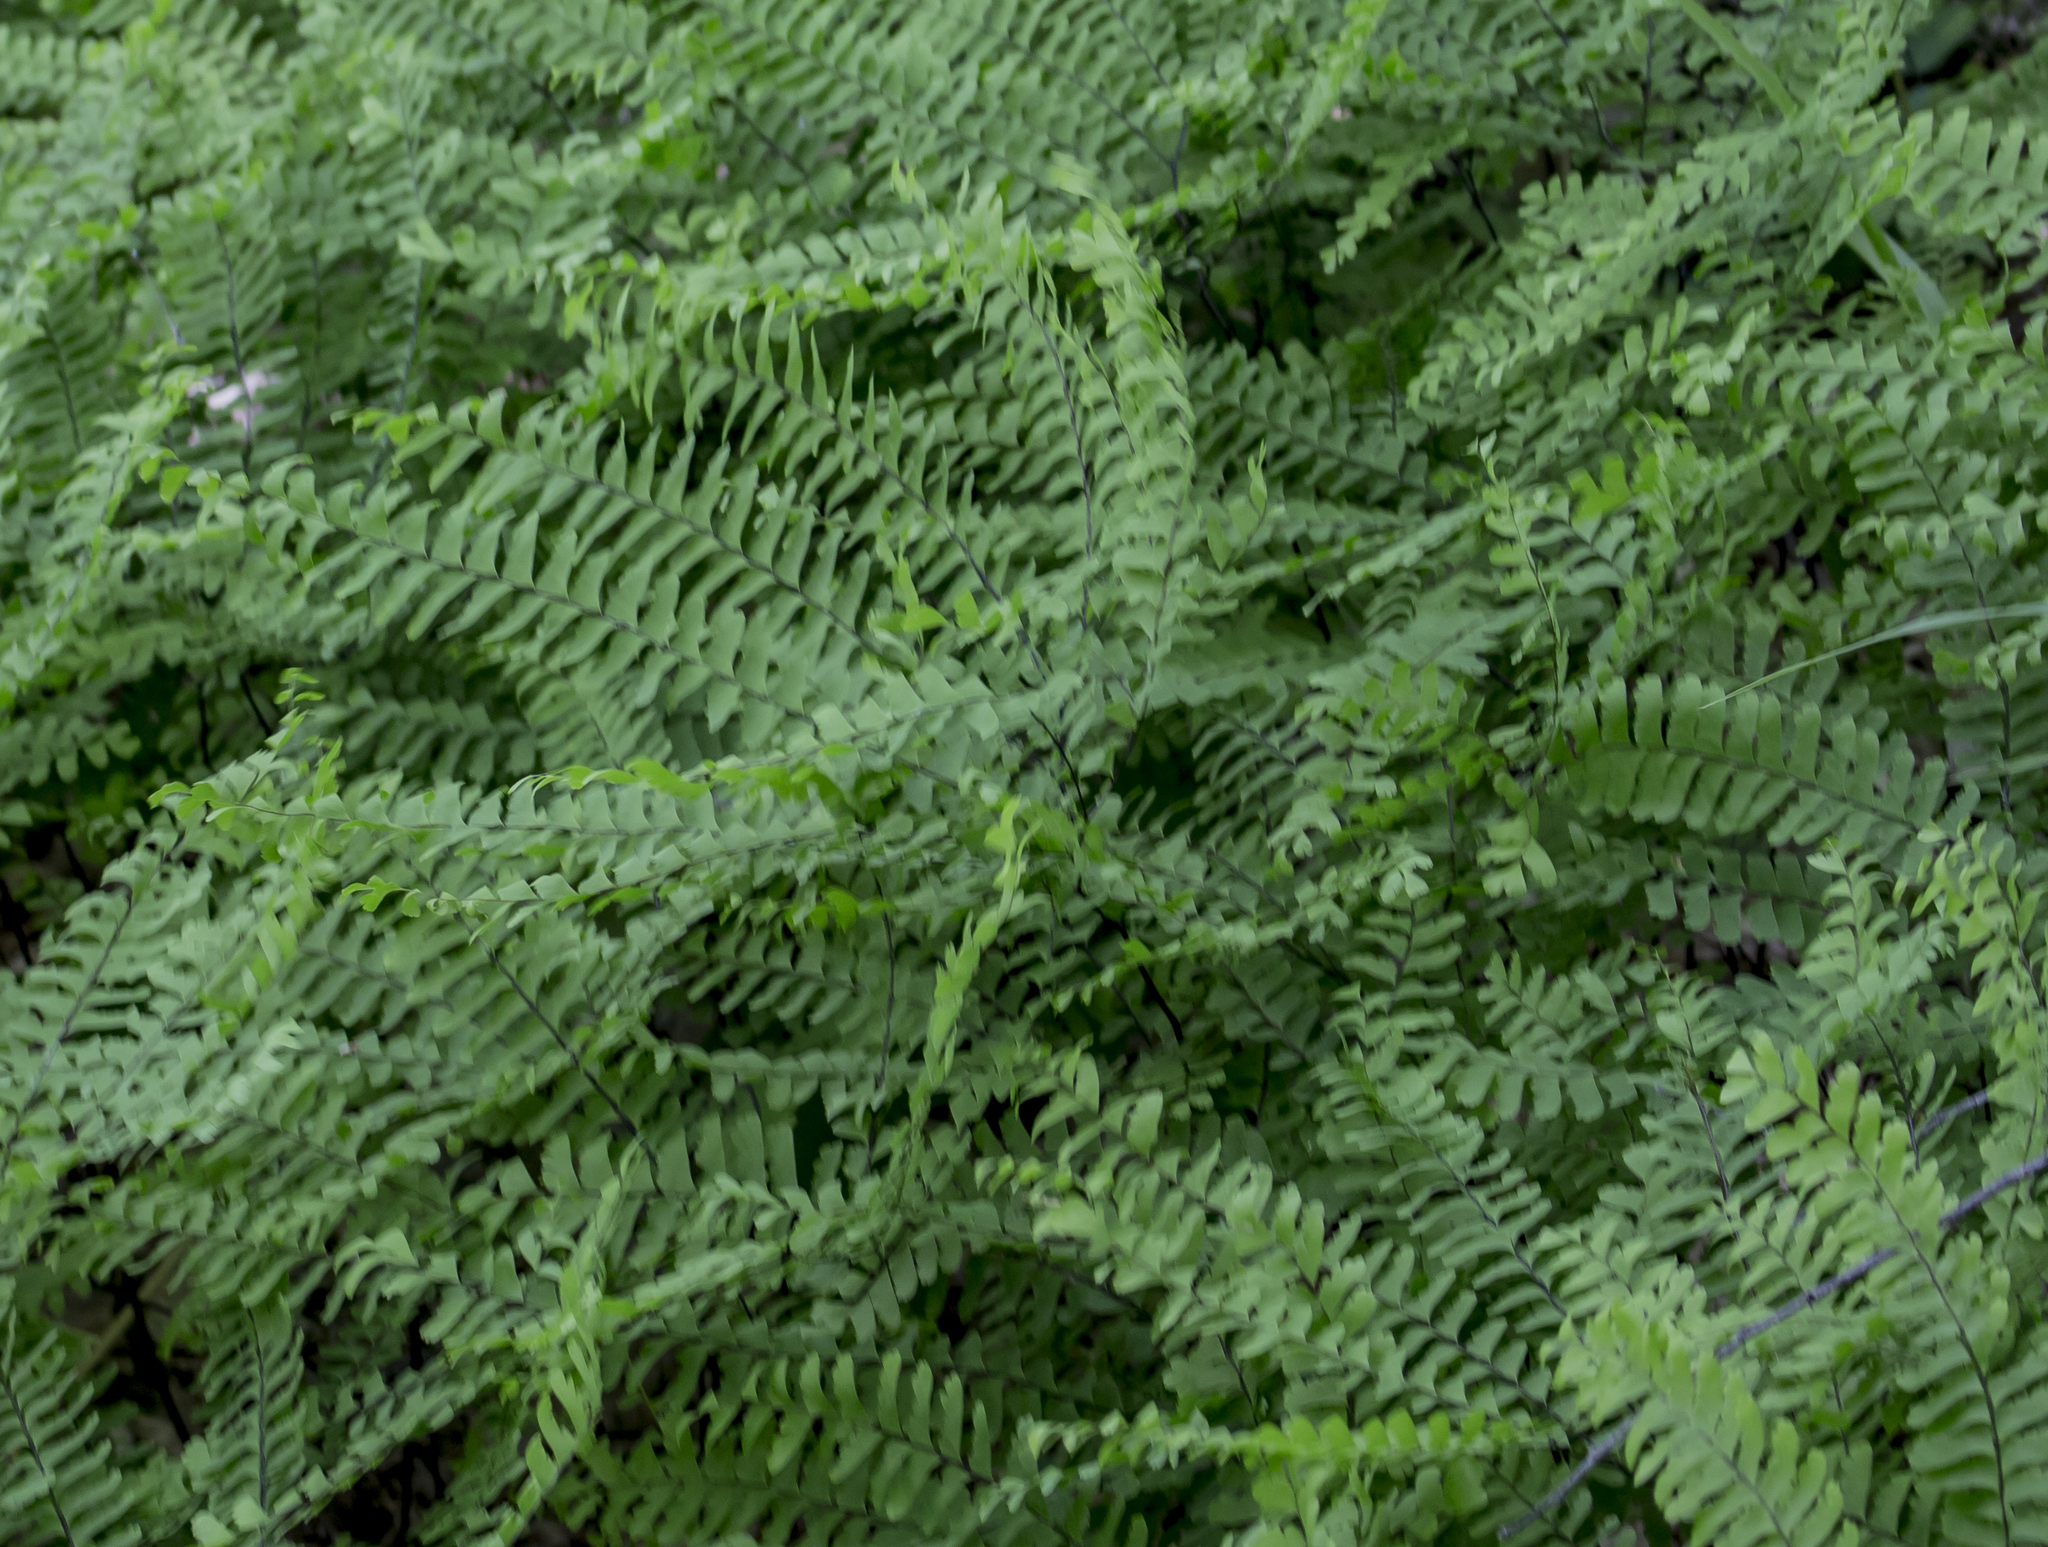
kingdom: Plantae
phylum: Tracheophyta
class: Polypodiopsida
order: Polypodiales
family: Pteridaceae
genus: Adiantum
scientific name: Adiantum pedatum
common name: Five-finger fern
